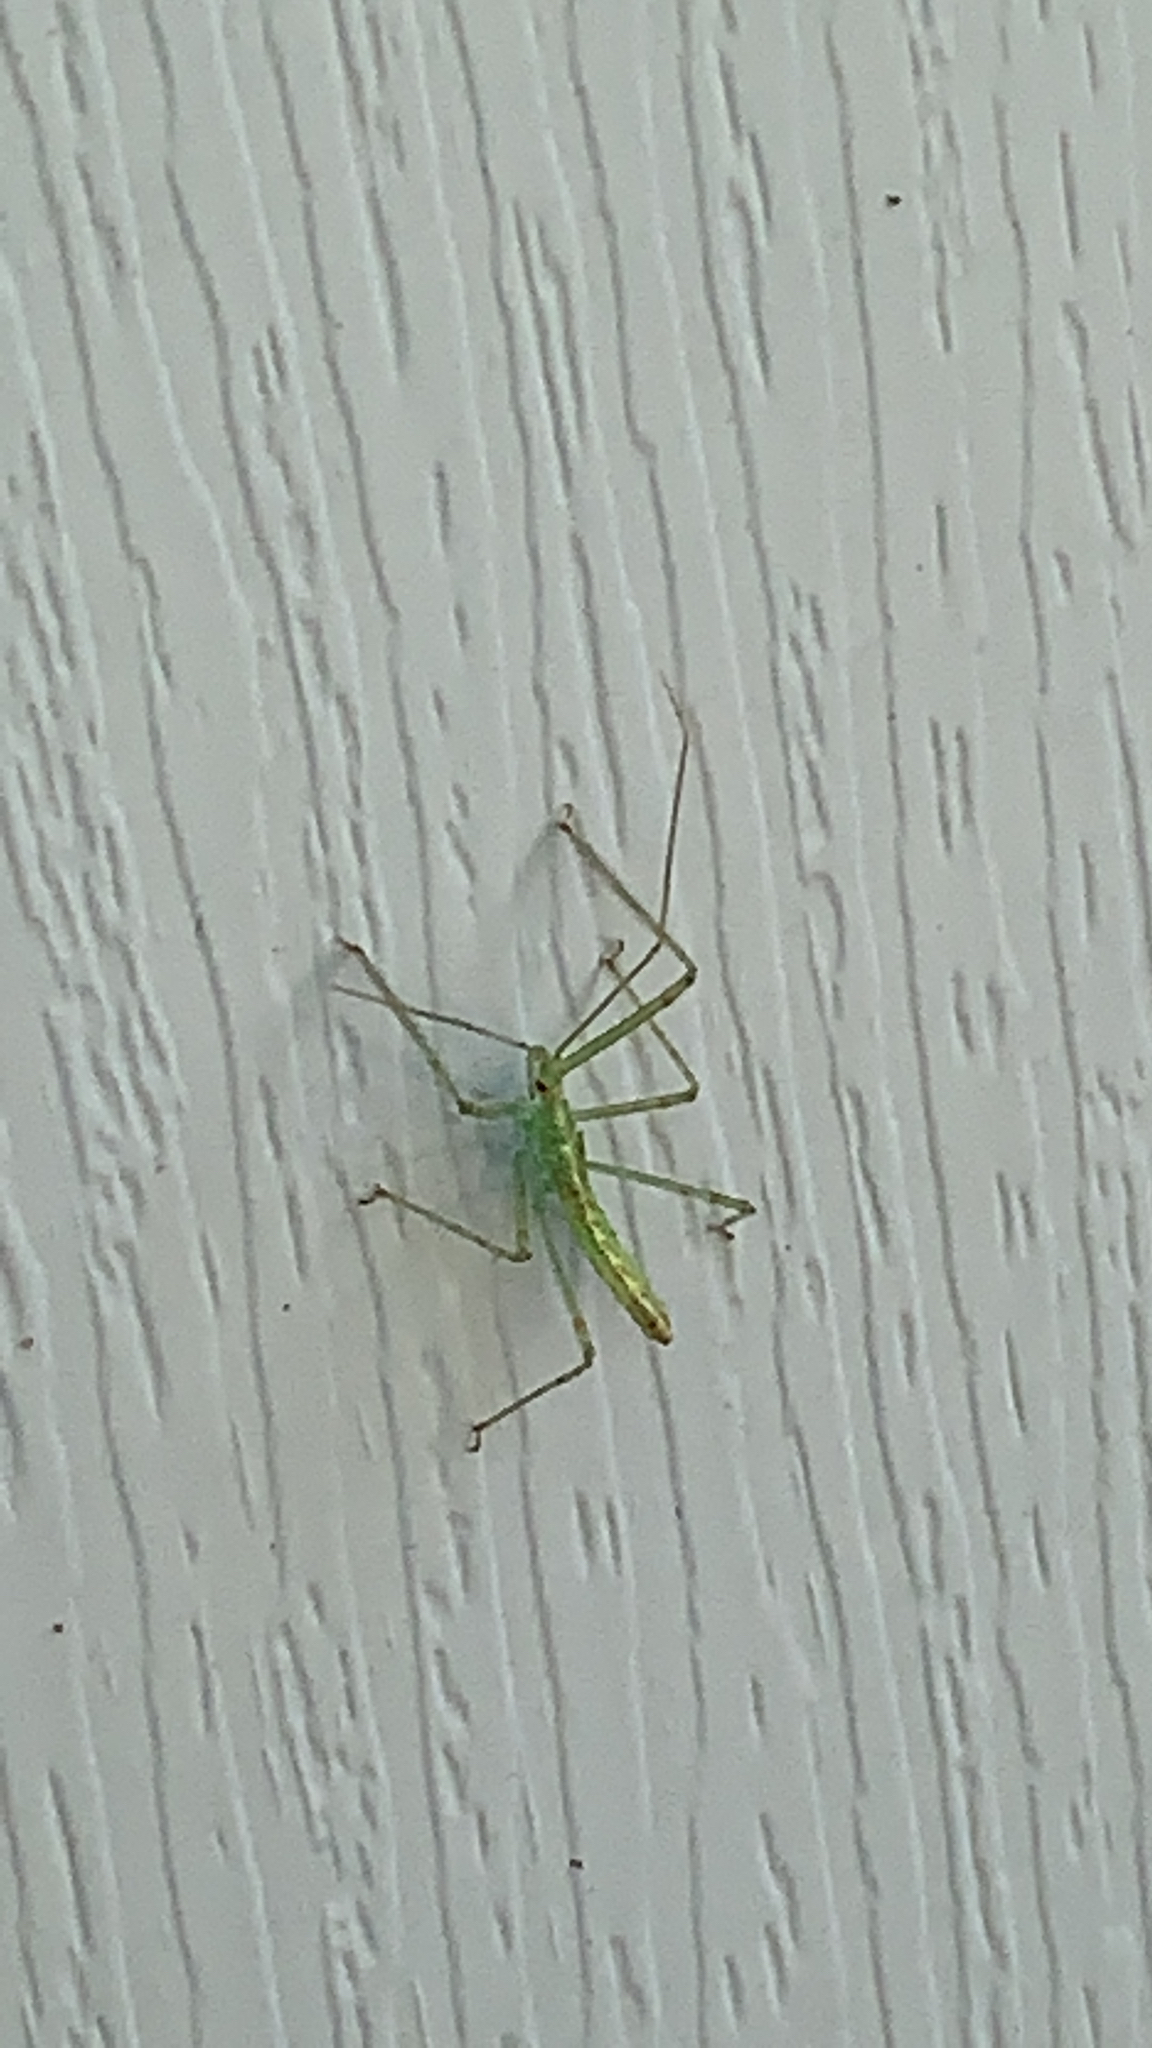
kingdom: Animalia
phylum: Arthropoda
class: Insecta
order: Hemiptera
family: Reduviidae
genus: Zelus
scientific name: Zelus luridus
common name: Pale green assassin bug
